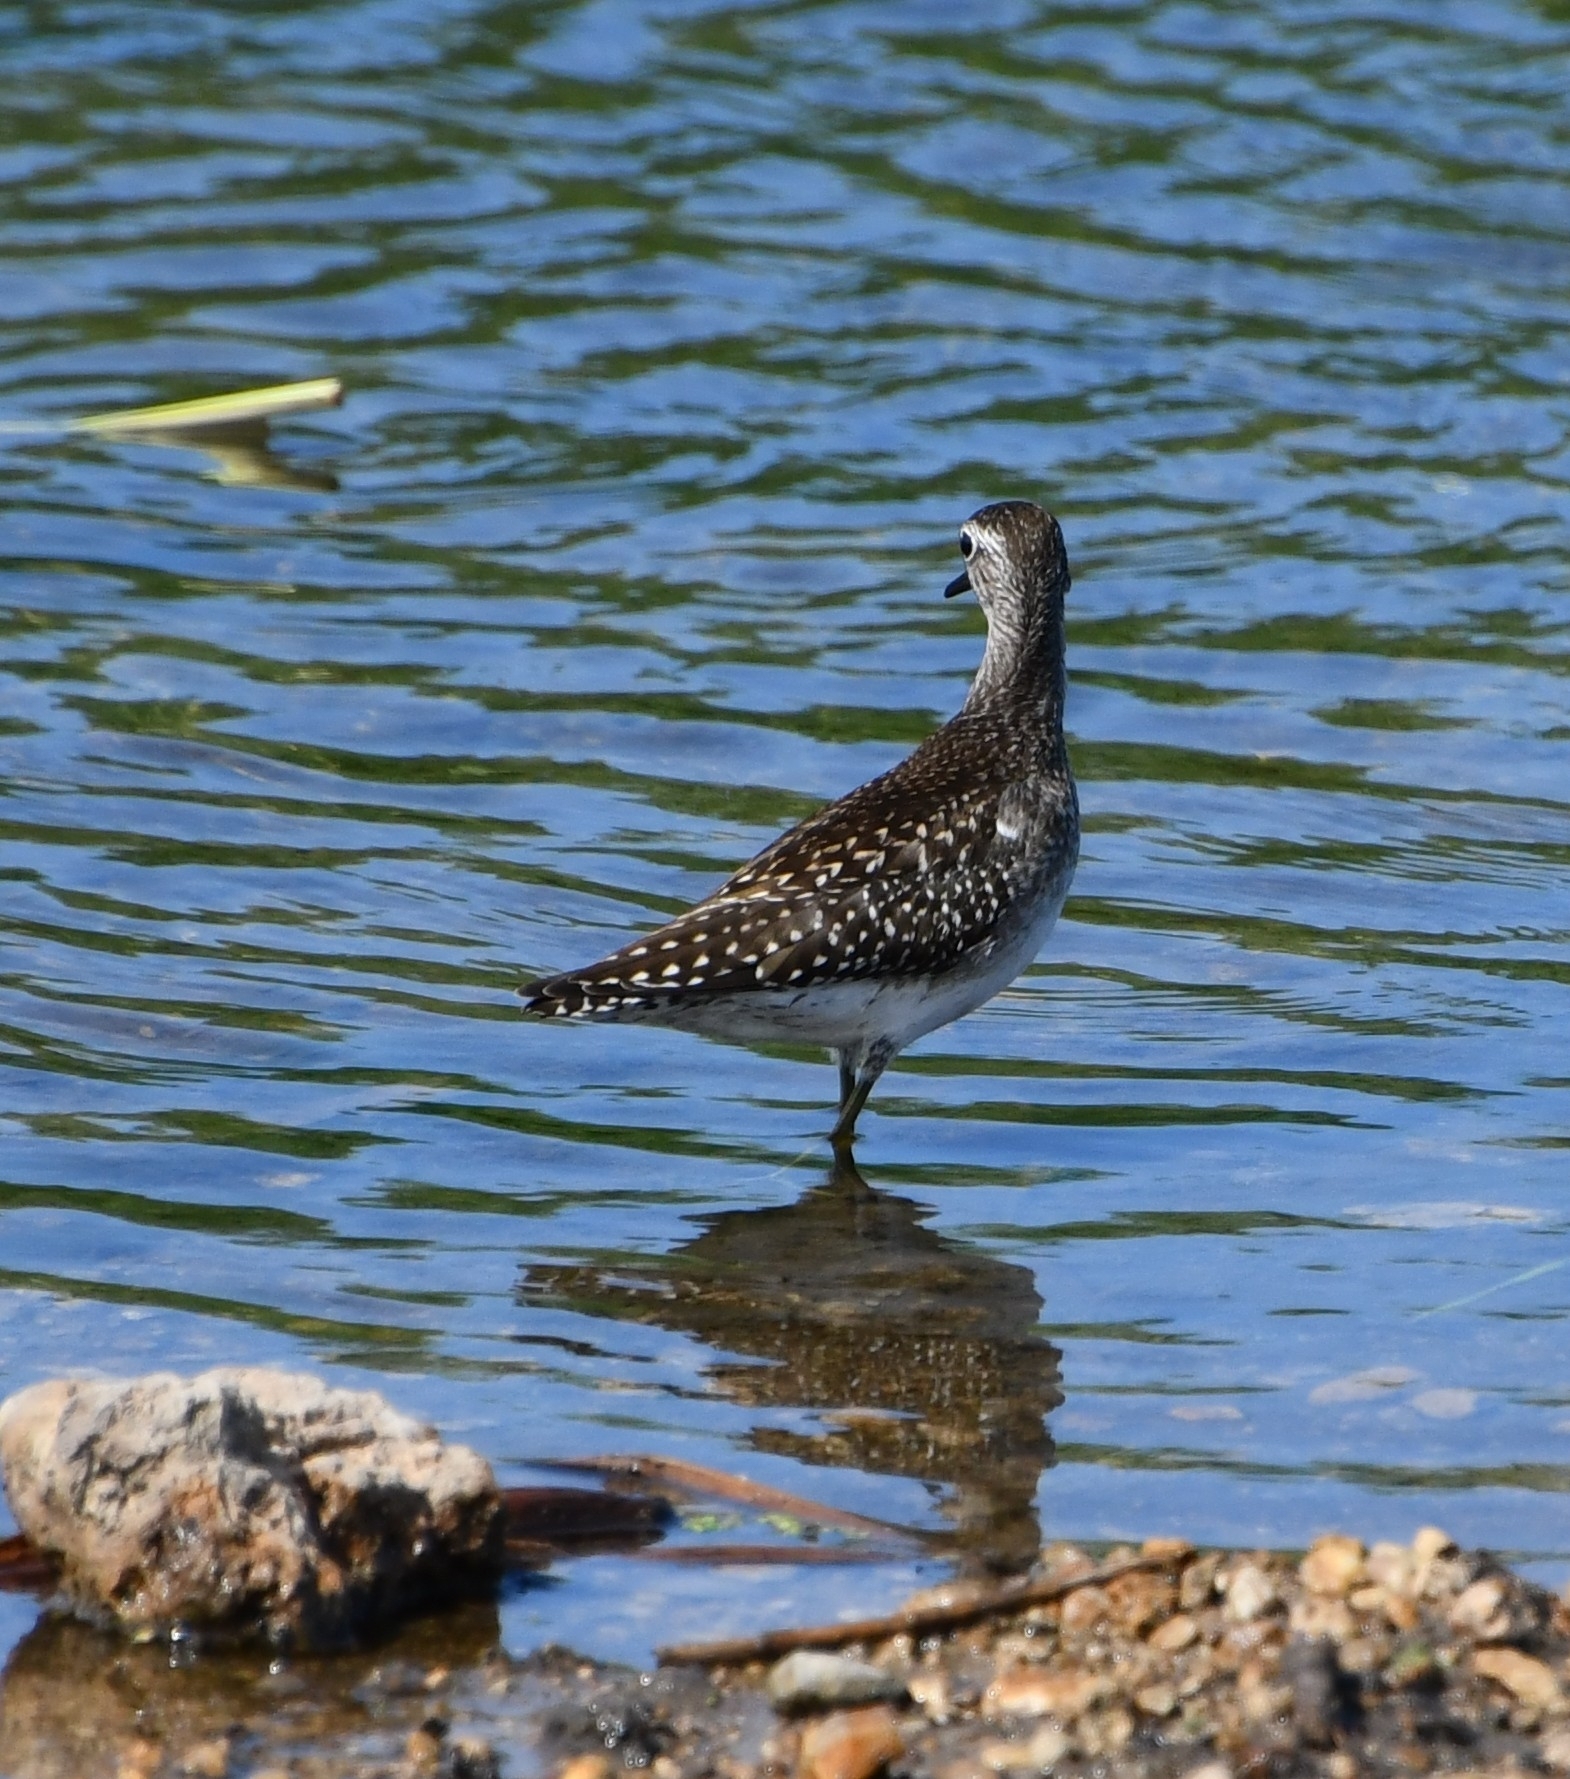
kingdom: Animalia
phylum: Chordata
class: Aves
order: Charadriiformes
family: Scolopacidae
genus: Tringa
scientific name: Tringa glareola
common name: Wood sandpiper
